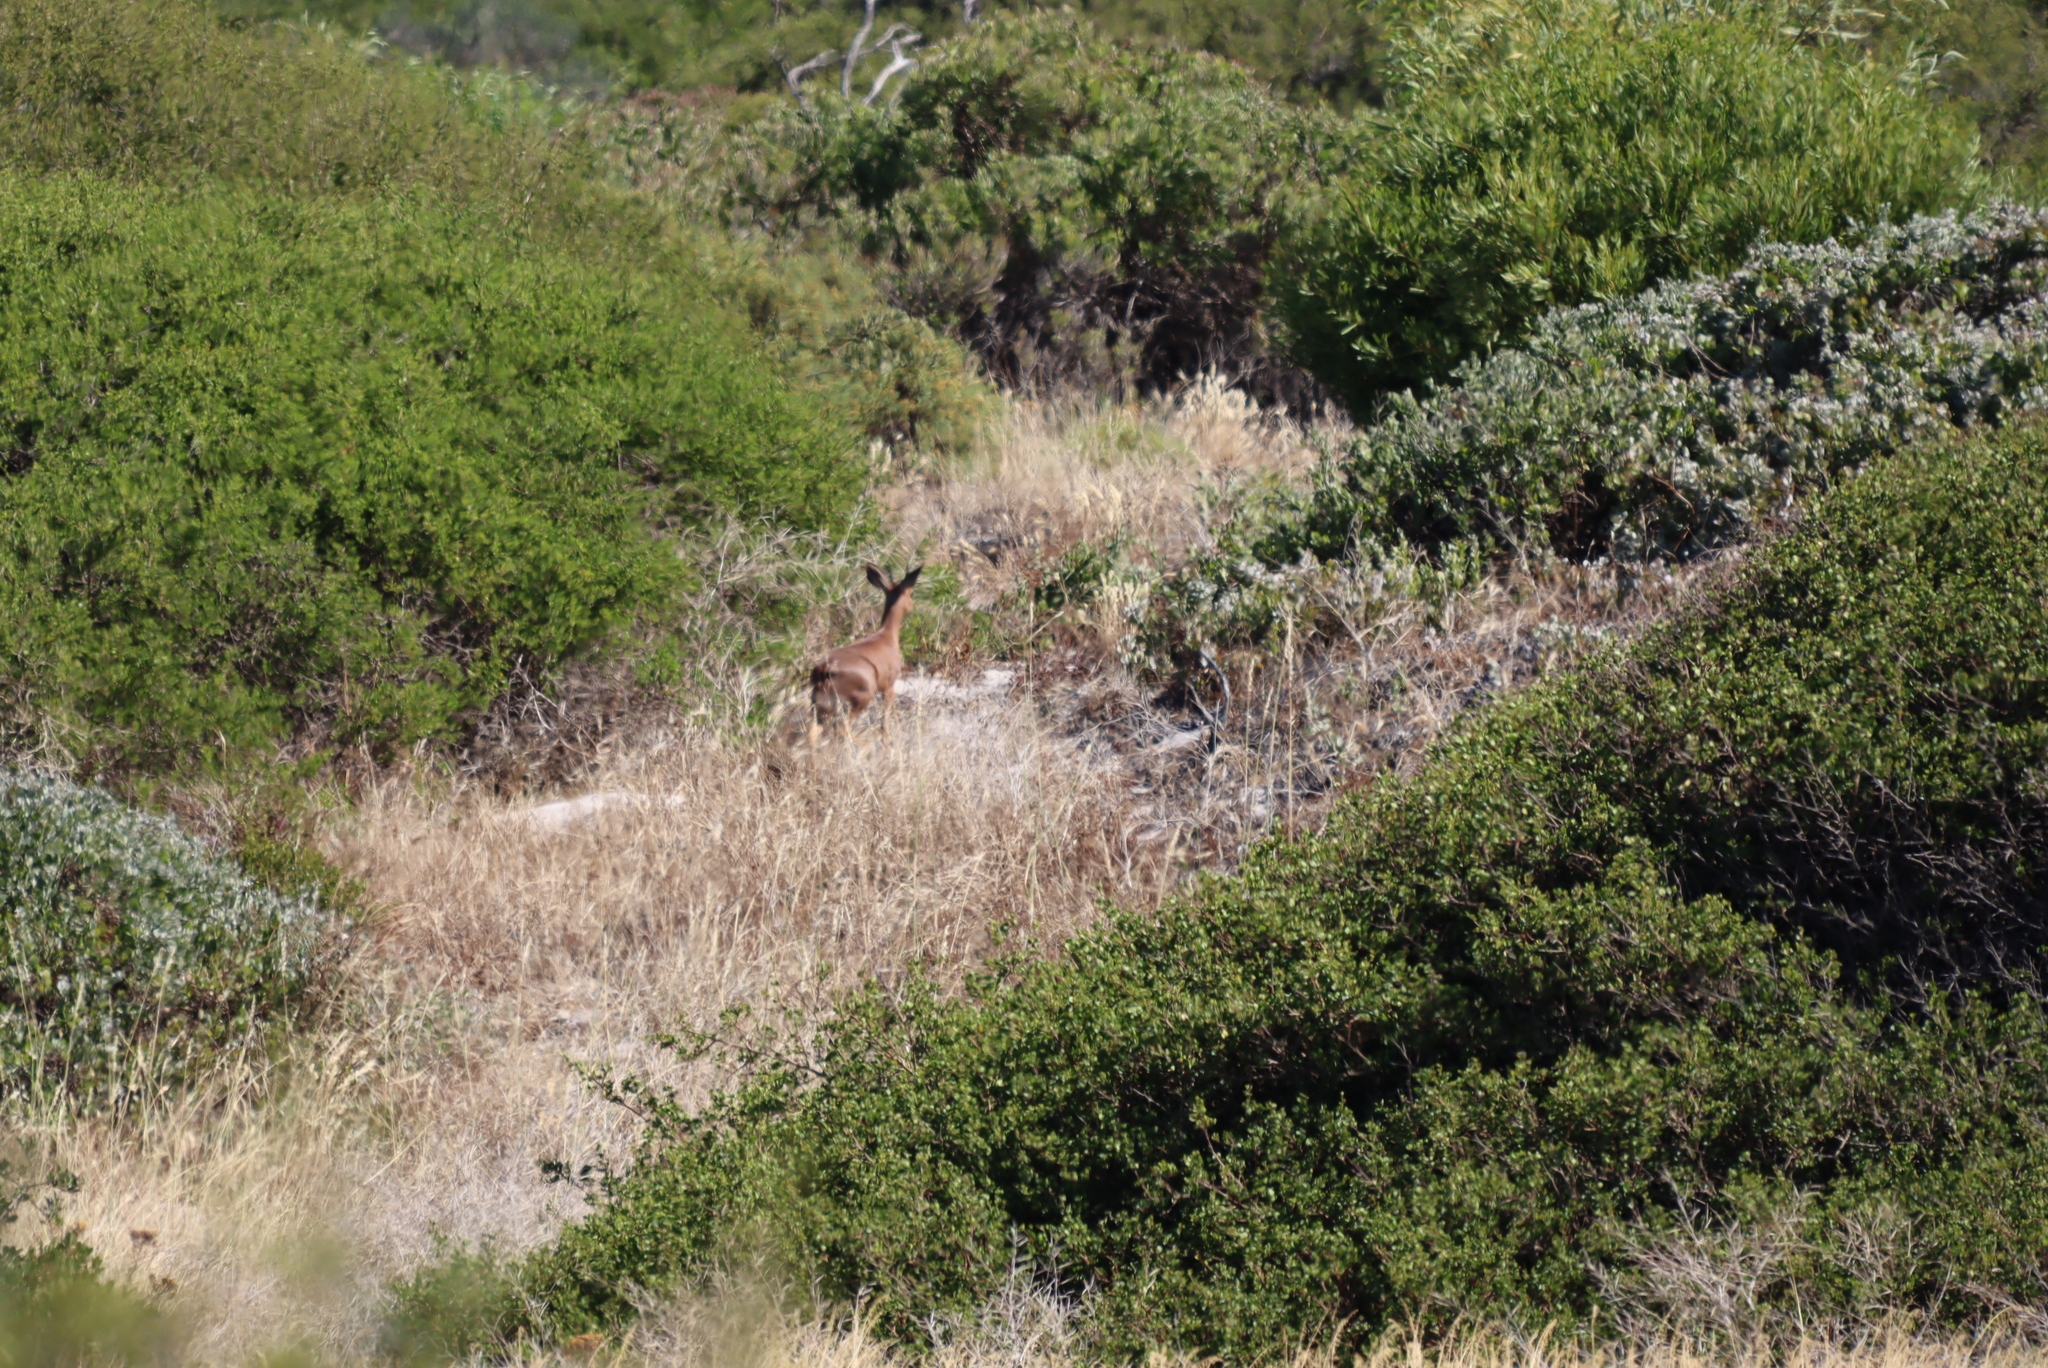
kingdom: Animalia
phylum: Chordata
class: Mammalia
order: Artiodactyla
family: Bovidae
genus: Raphicerus
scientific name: Raphicerus campestris
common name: Steenbok
